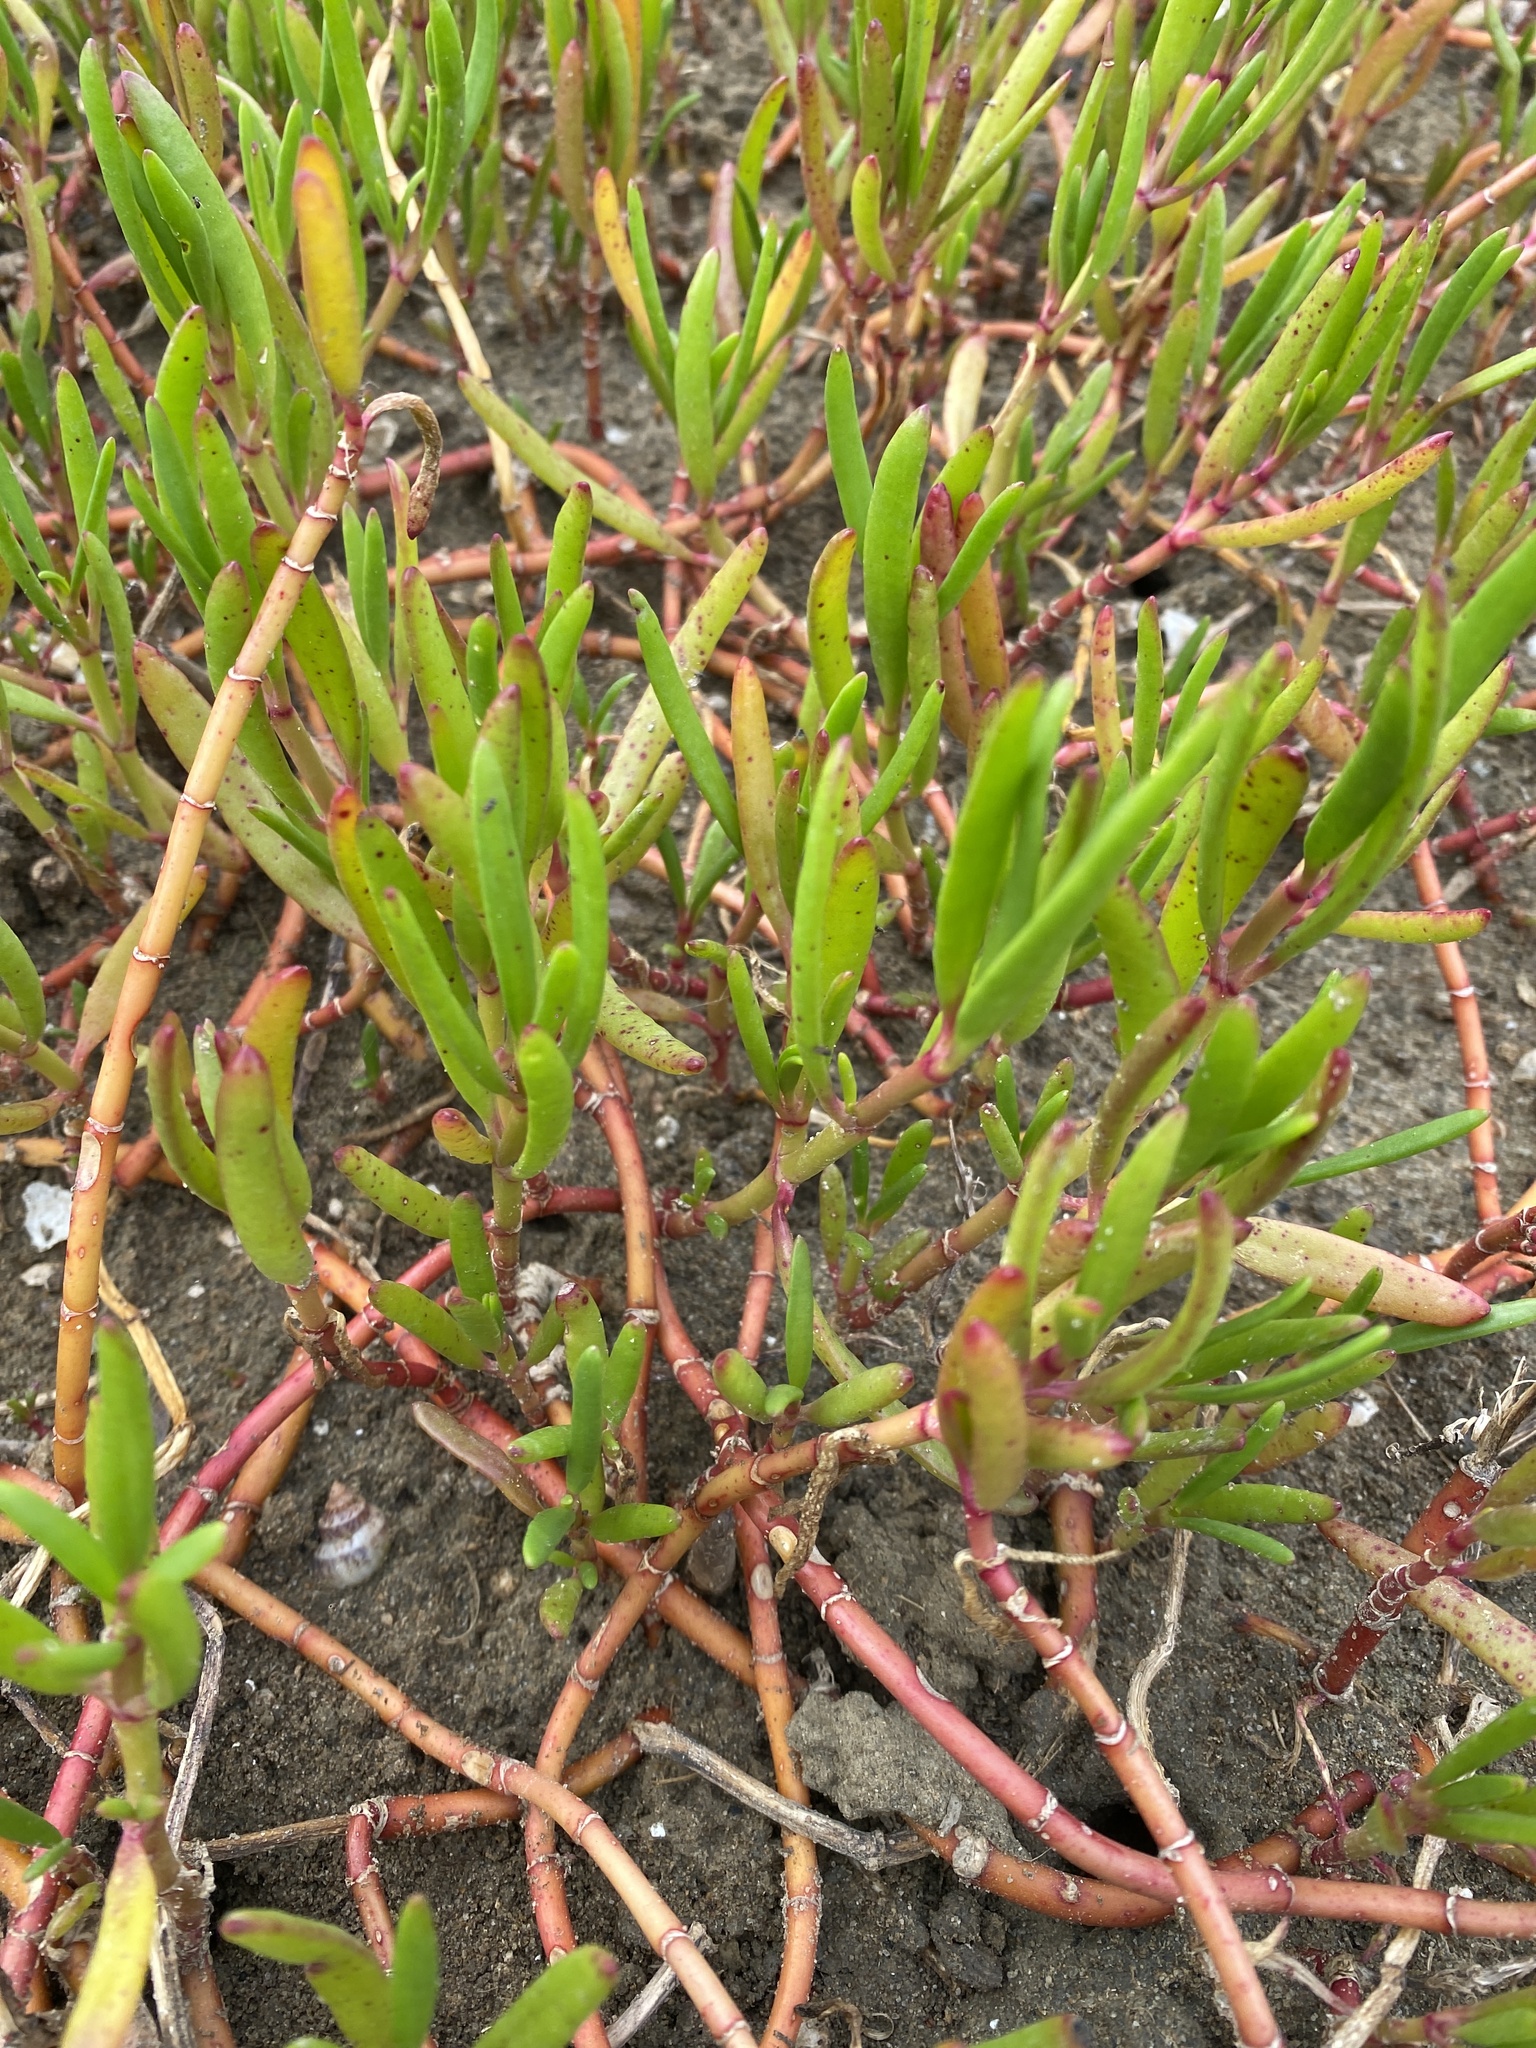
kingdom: Plantae
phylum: Tracheophyta
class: Magnoliopsida
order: Caryophyllales
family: Aizoaceae
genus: Sesuvium
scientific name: Sesuvium portulacastrum
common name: Sea-purslane
